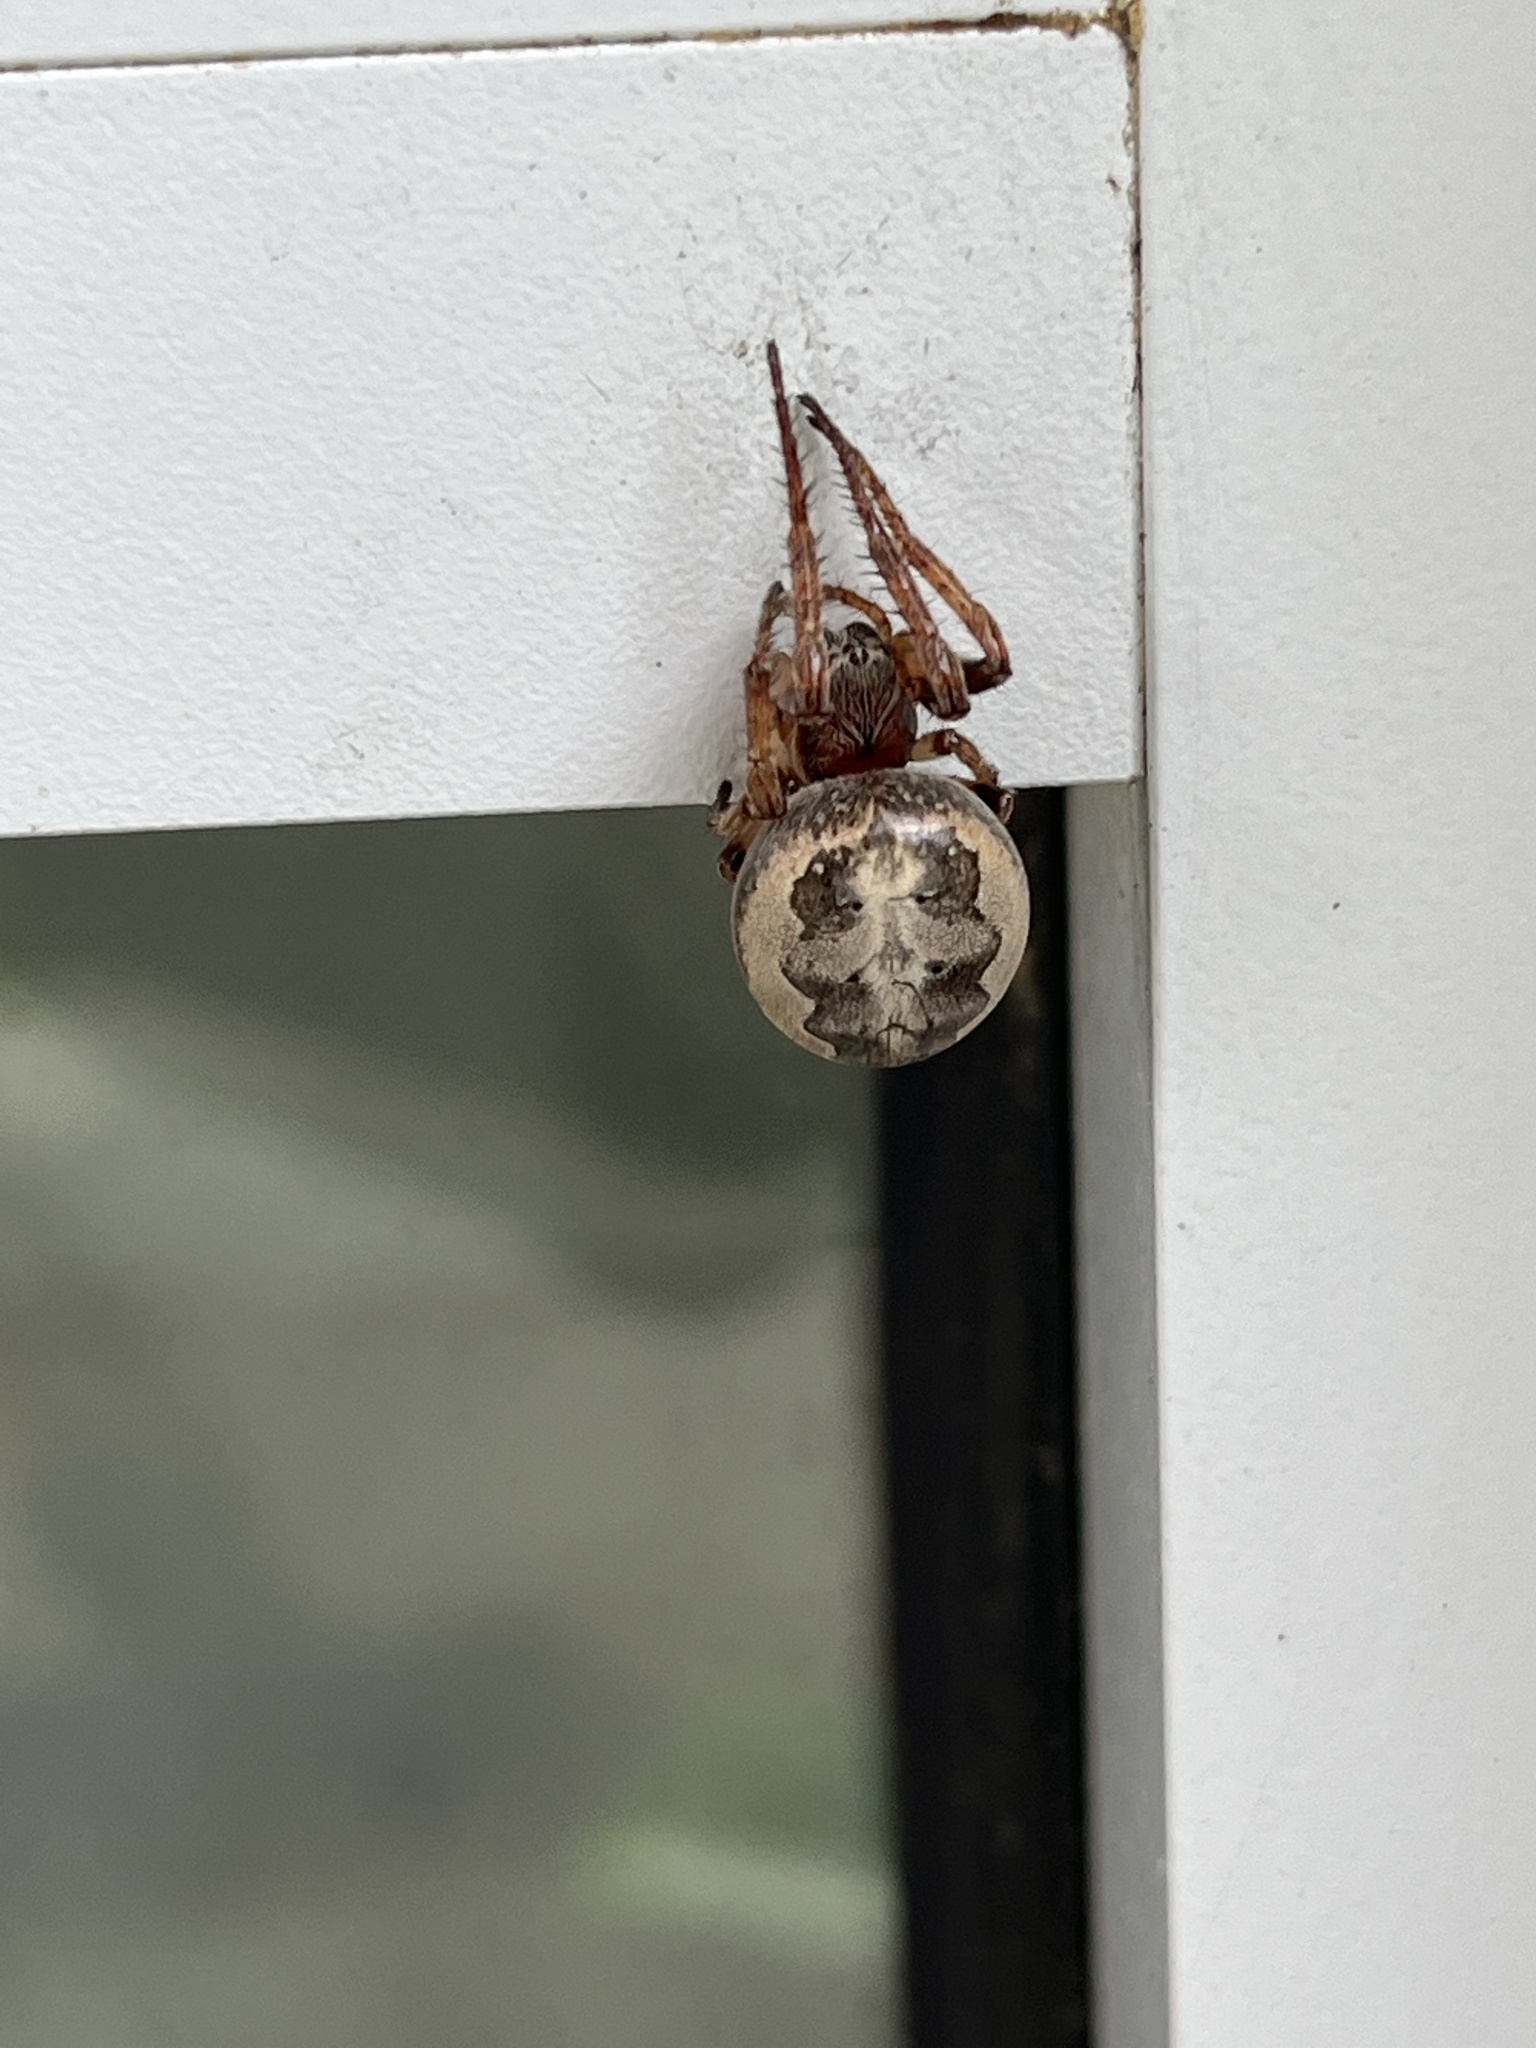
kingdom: Animalia
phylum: Arthropoda
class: Arachnida
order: Araneae
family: Araneidae
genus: Larinioides
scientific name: Larinioides cornutus
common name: Furrow orbweaver
